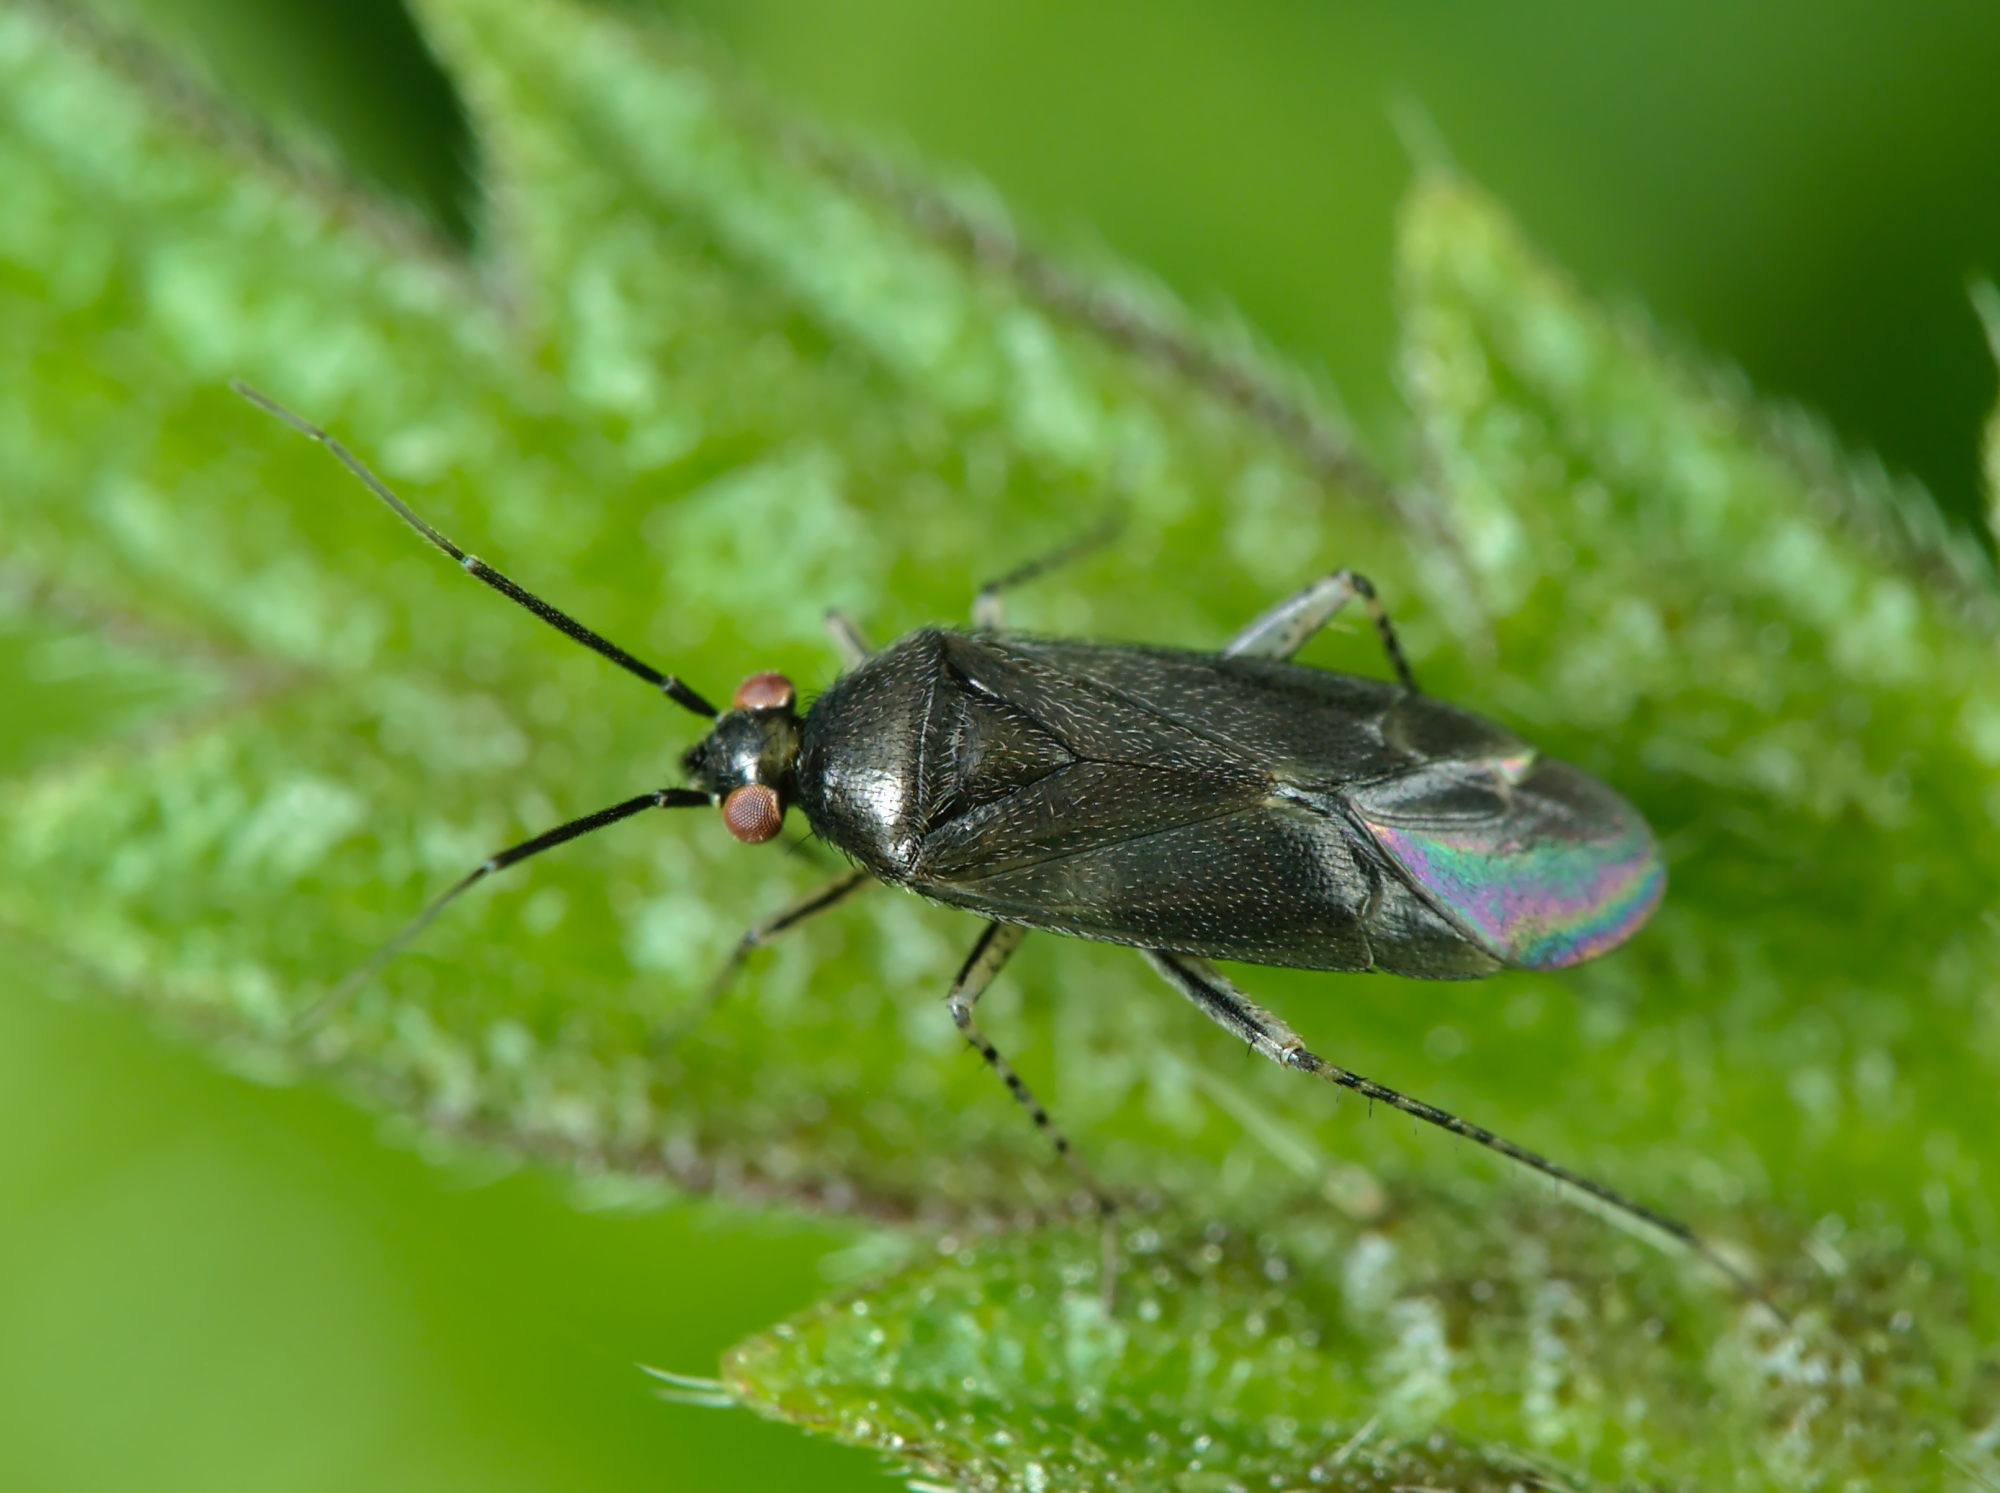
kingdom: Animalia
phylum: Arthropoda
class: Insecta
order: Hemiptera
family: Miridae
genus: Plagiognathus
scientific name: Plagiognathus arbustorum
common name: Plant bug
